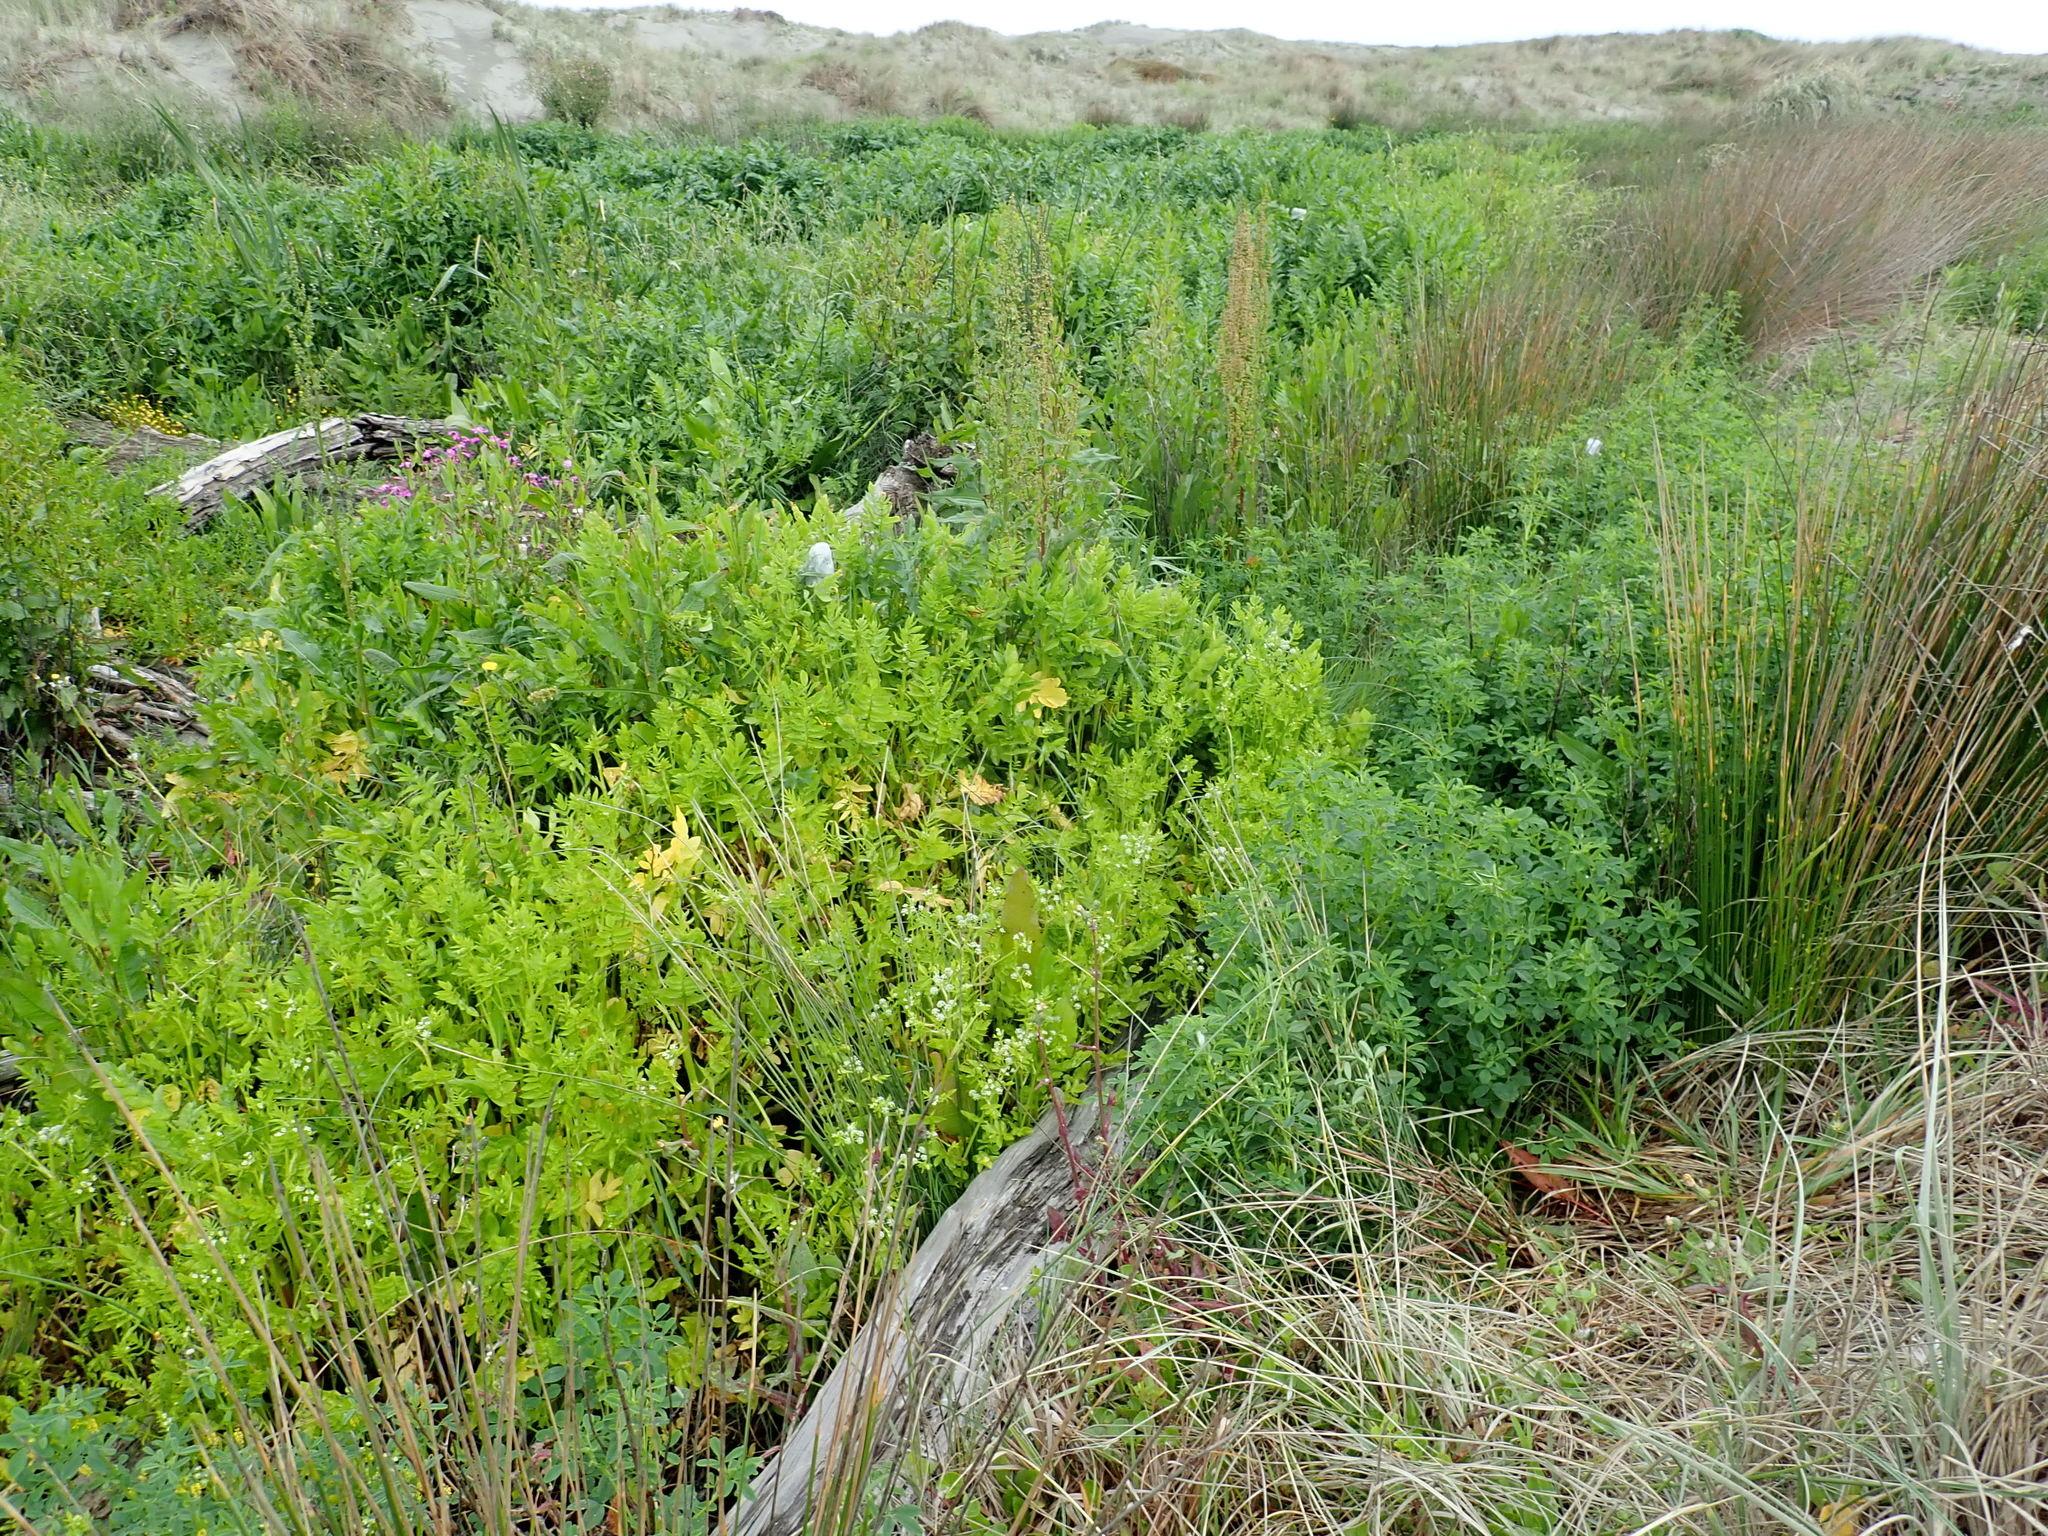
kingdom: Plantae
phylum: Tracheophyta
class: Magnoliopsida
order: Apiales
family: Apiaceae
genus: Helosciadium
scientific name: Helosciadium nodiflorum
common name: Fool's-watercress
